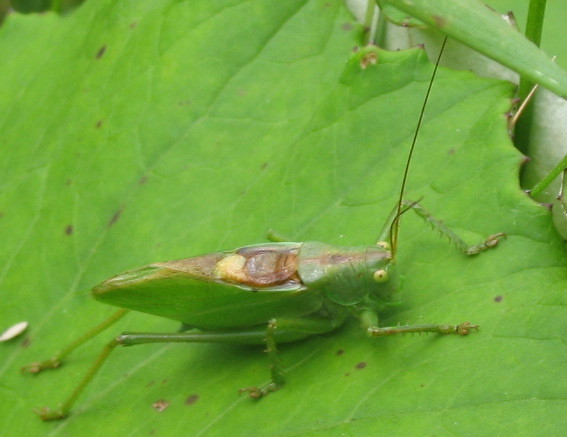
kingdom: Animalia
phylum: Arthropoda
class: Insecta
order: Orthoptera
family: Tettigoniidae
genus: Tettigonia
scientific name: Tettigonia cantans
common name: Upland green bush-cricket
